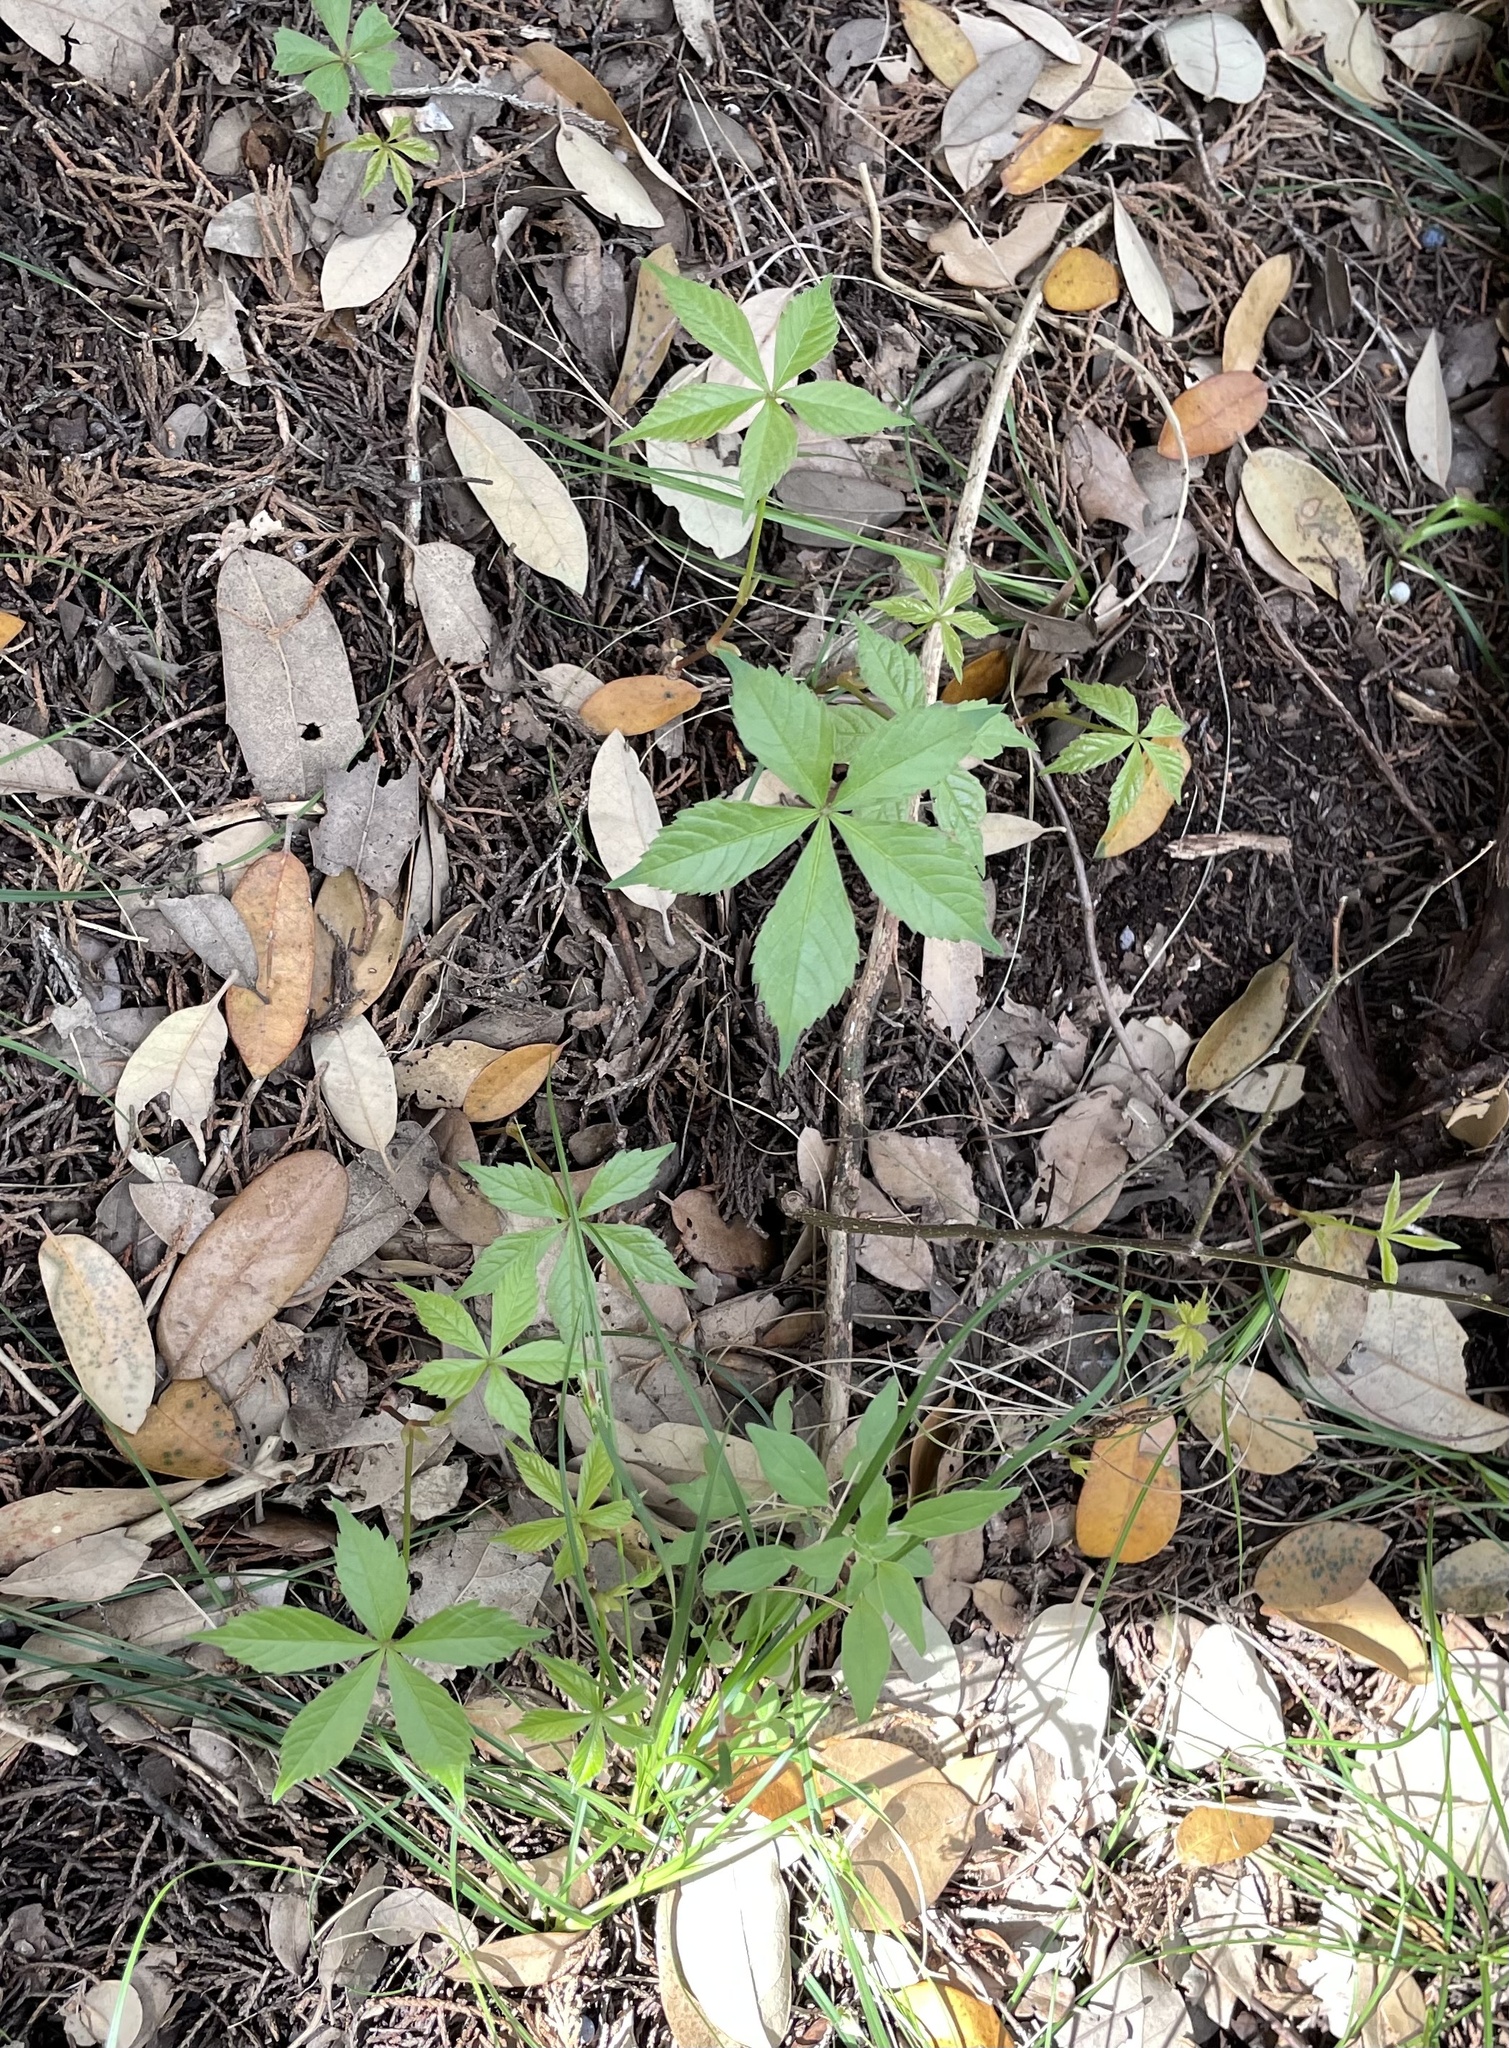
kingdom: Plantae
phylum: Tracheophyta
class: Magnoliopsida
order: Vitales
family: Vitaceae
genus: Parthenocissus
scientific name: Parthenocissus quinquefolia
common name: Virginia-creeper
